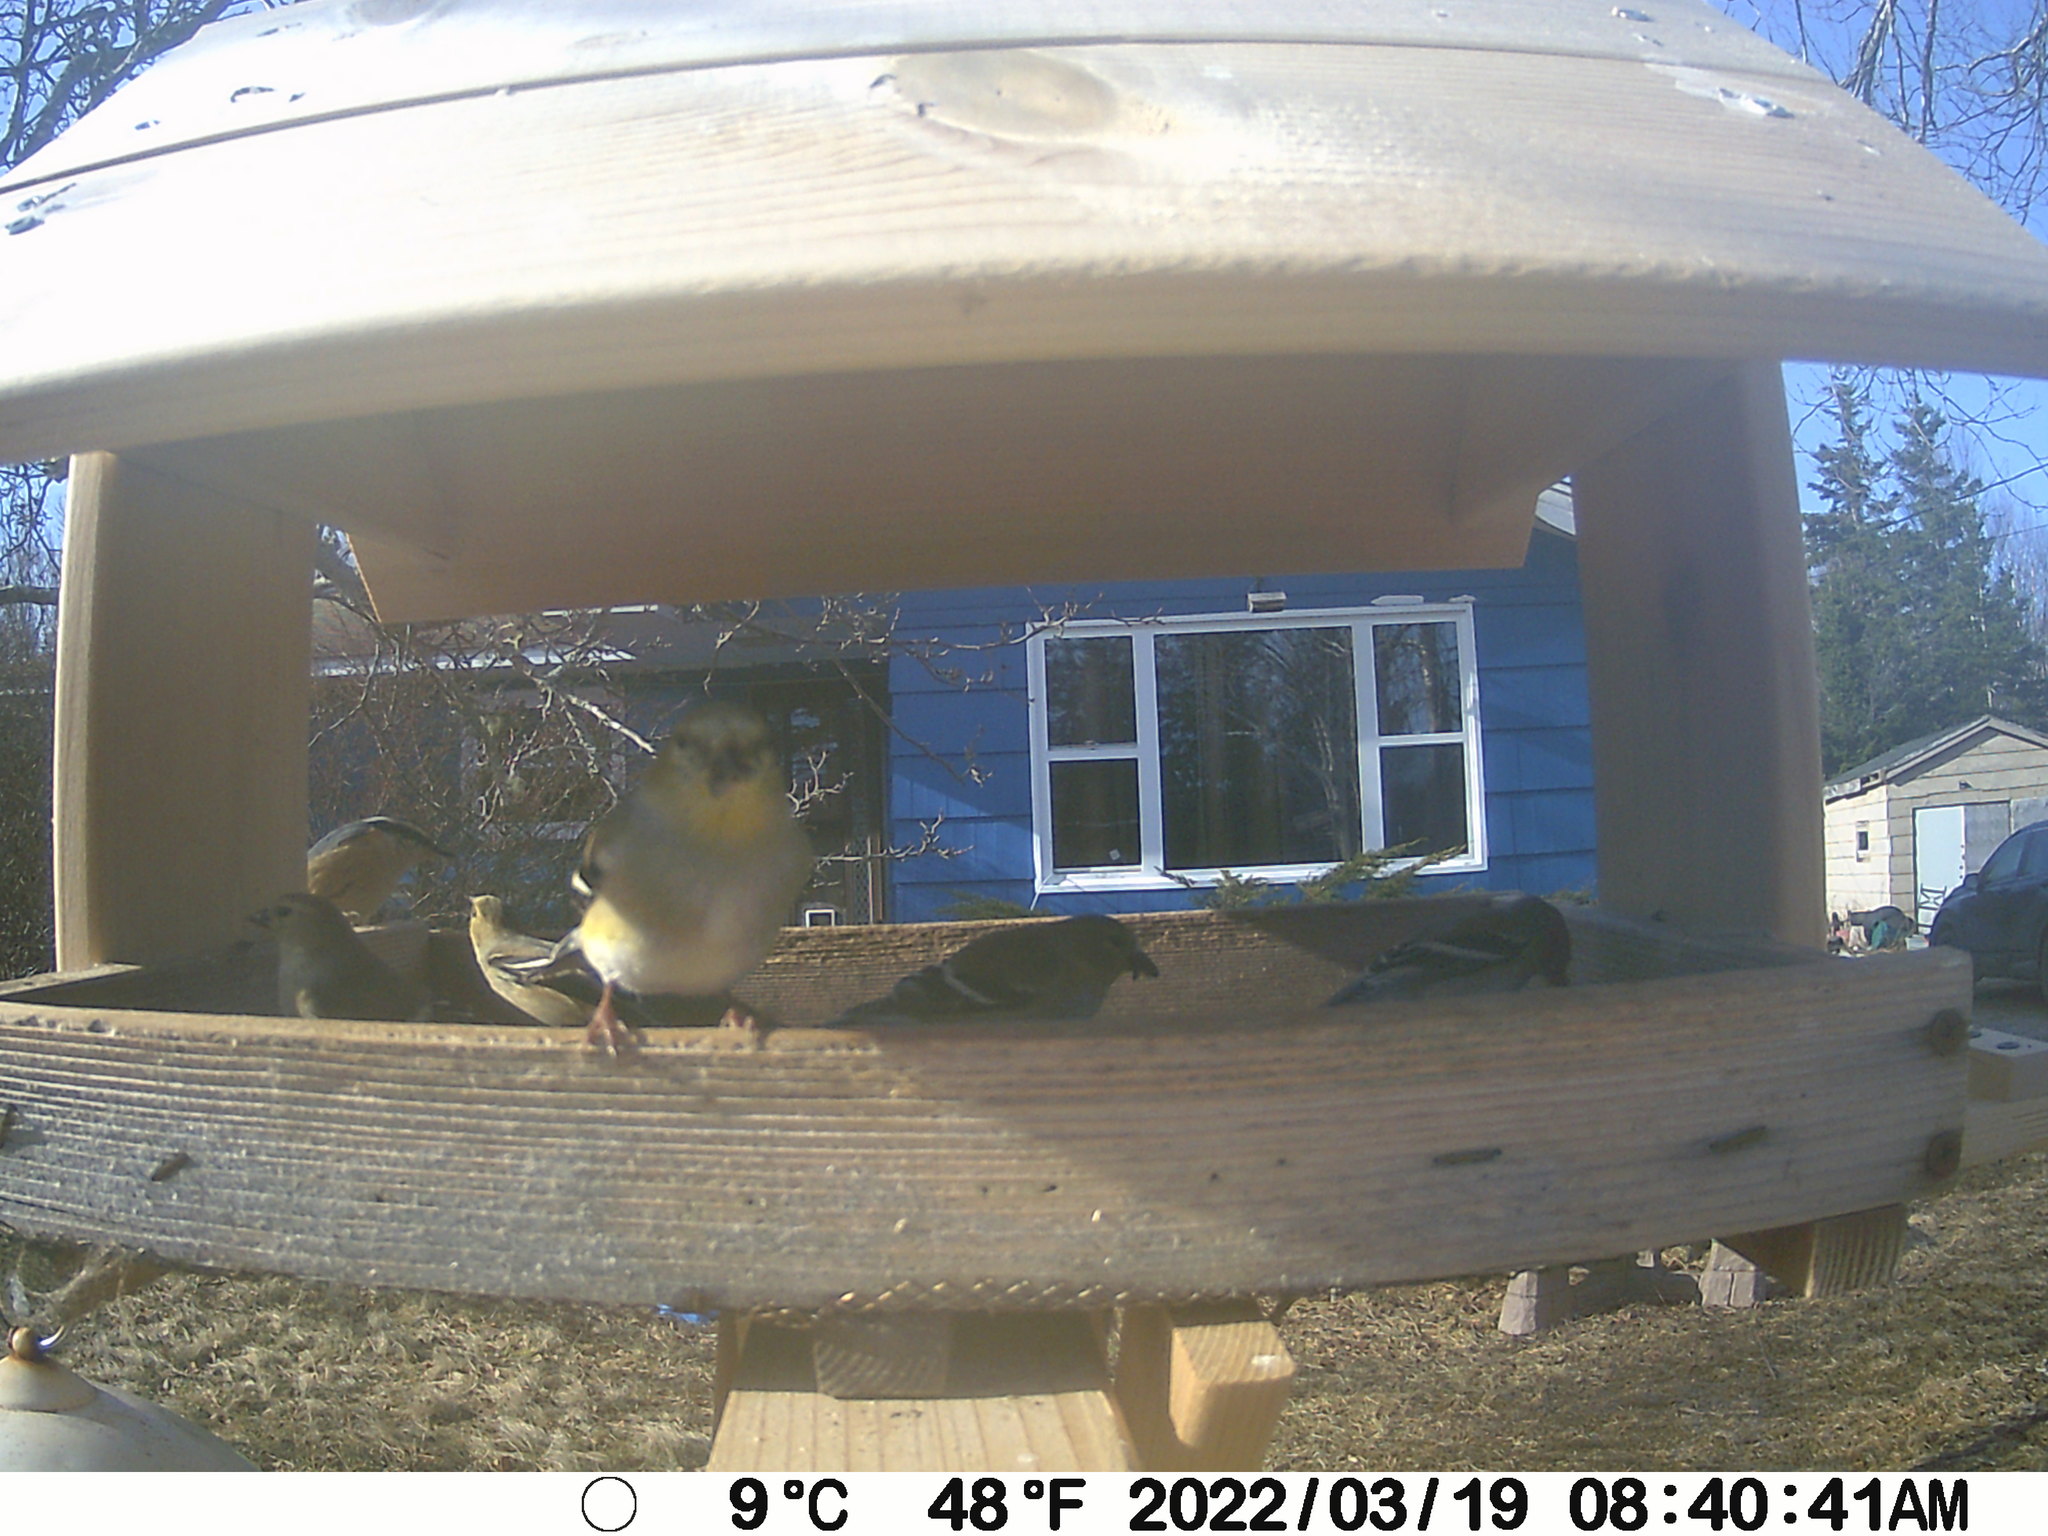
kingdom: Animalia
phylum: Chordata
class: Aves
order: Passeriformes
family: Fringillidae
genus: Spinus
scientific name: Spinus tristis
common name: American goldfinch
